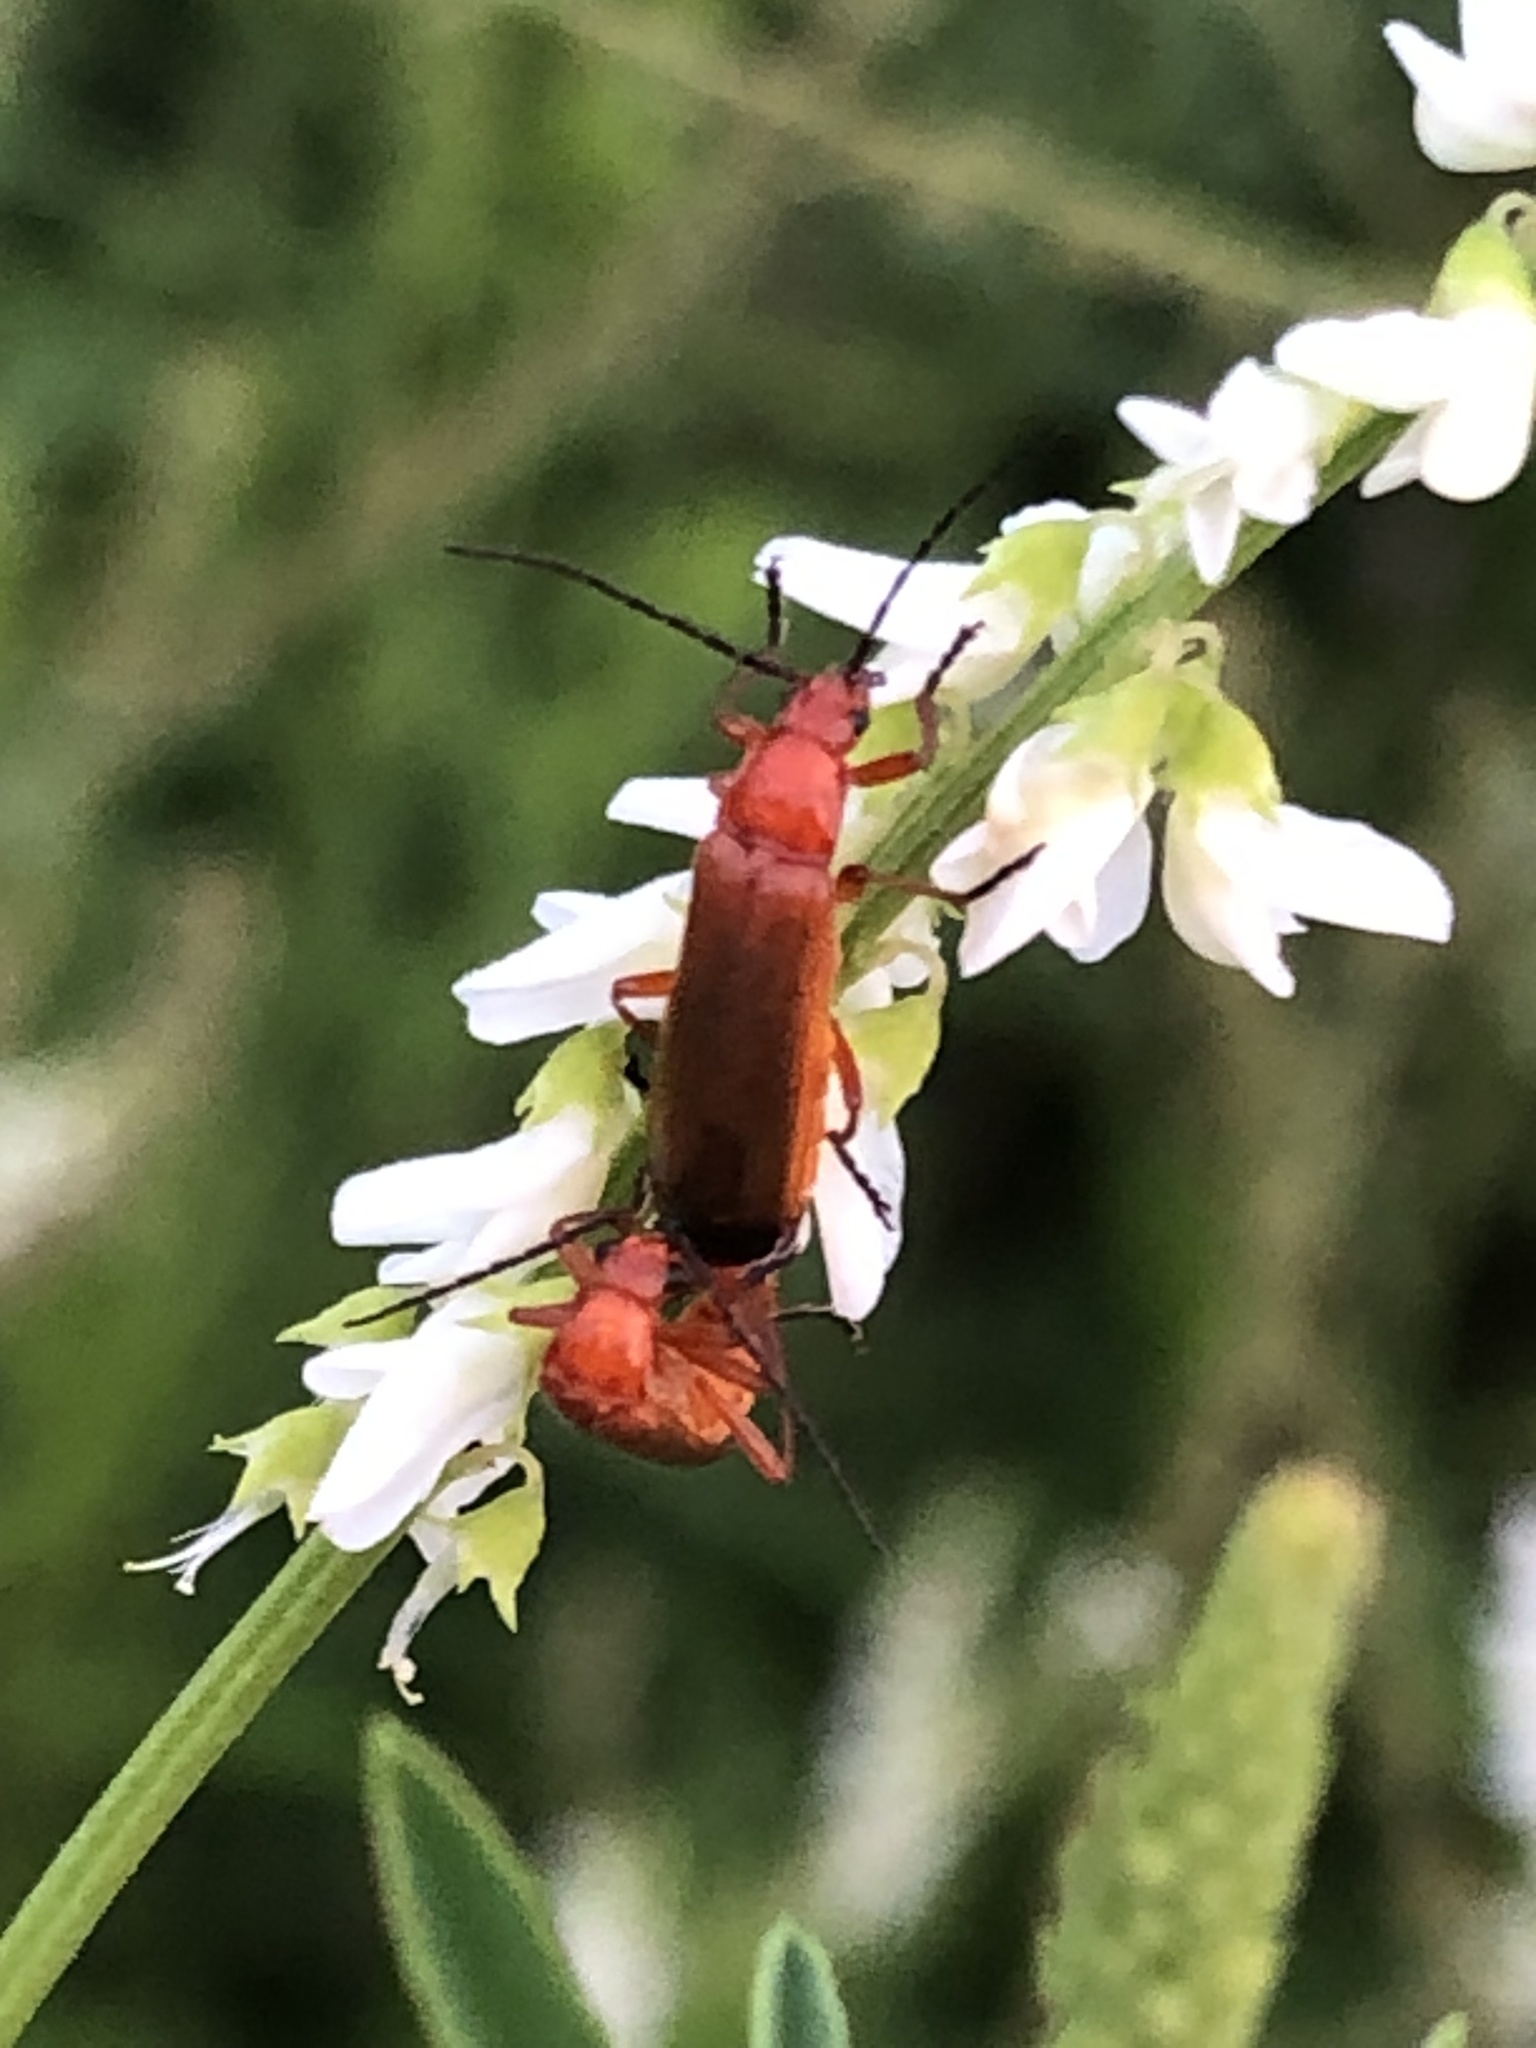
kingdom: Animalia
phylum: Arthropoda
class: Insecta
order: Coleoptera
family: Cantharidae
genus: Rhagonycha
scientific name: Rhagonycha fulva
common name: Common red soldier beetle
